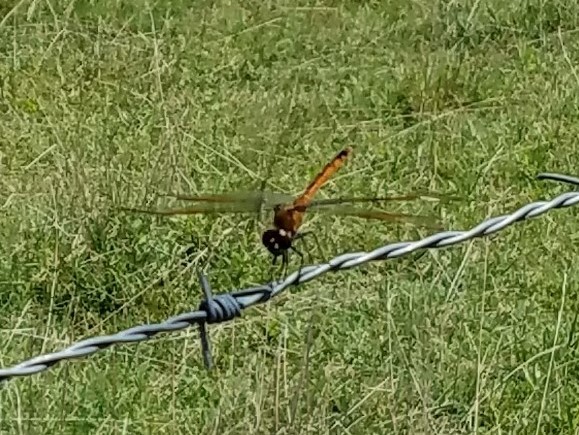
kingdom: Animalia
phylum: Arthropoda
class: Insecta
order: Odonata
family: Libellulidae
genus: Brachymesia
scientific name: Brachymesia gravida
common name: Four-spotted pennant
